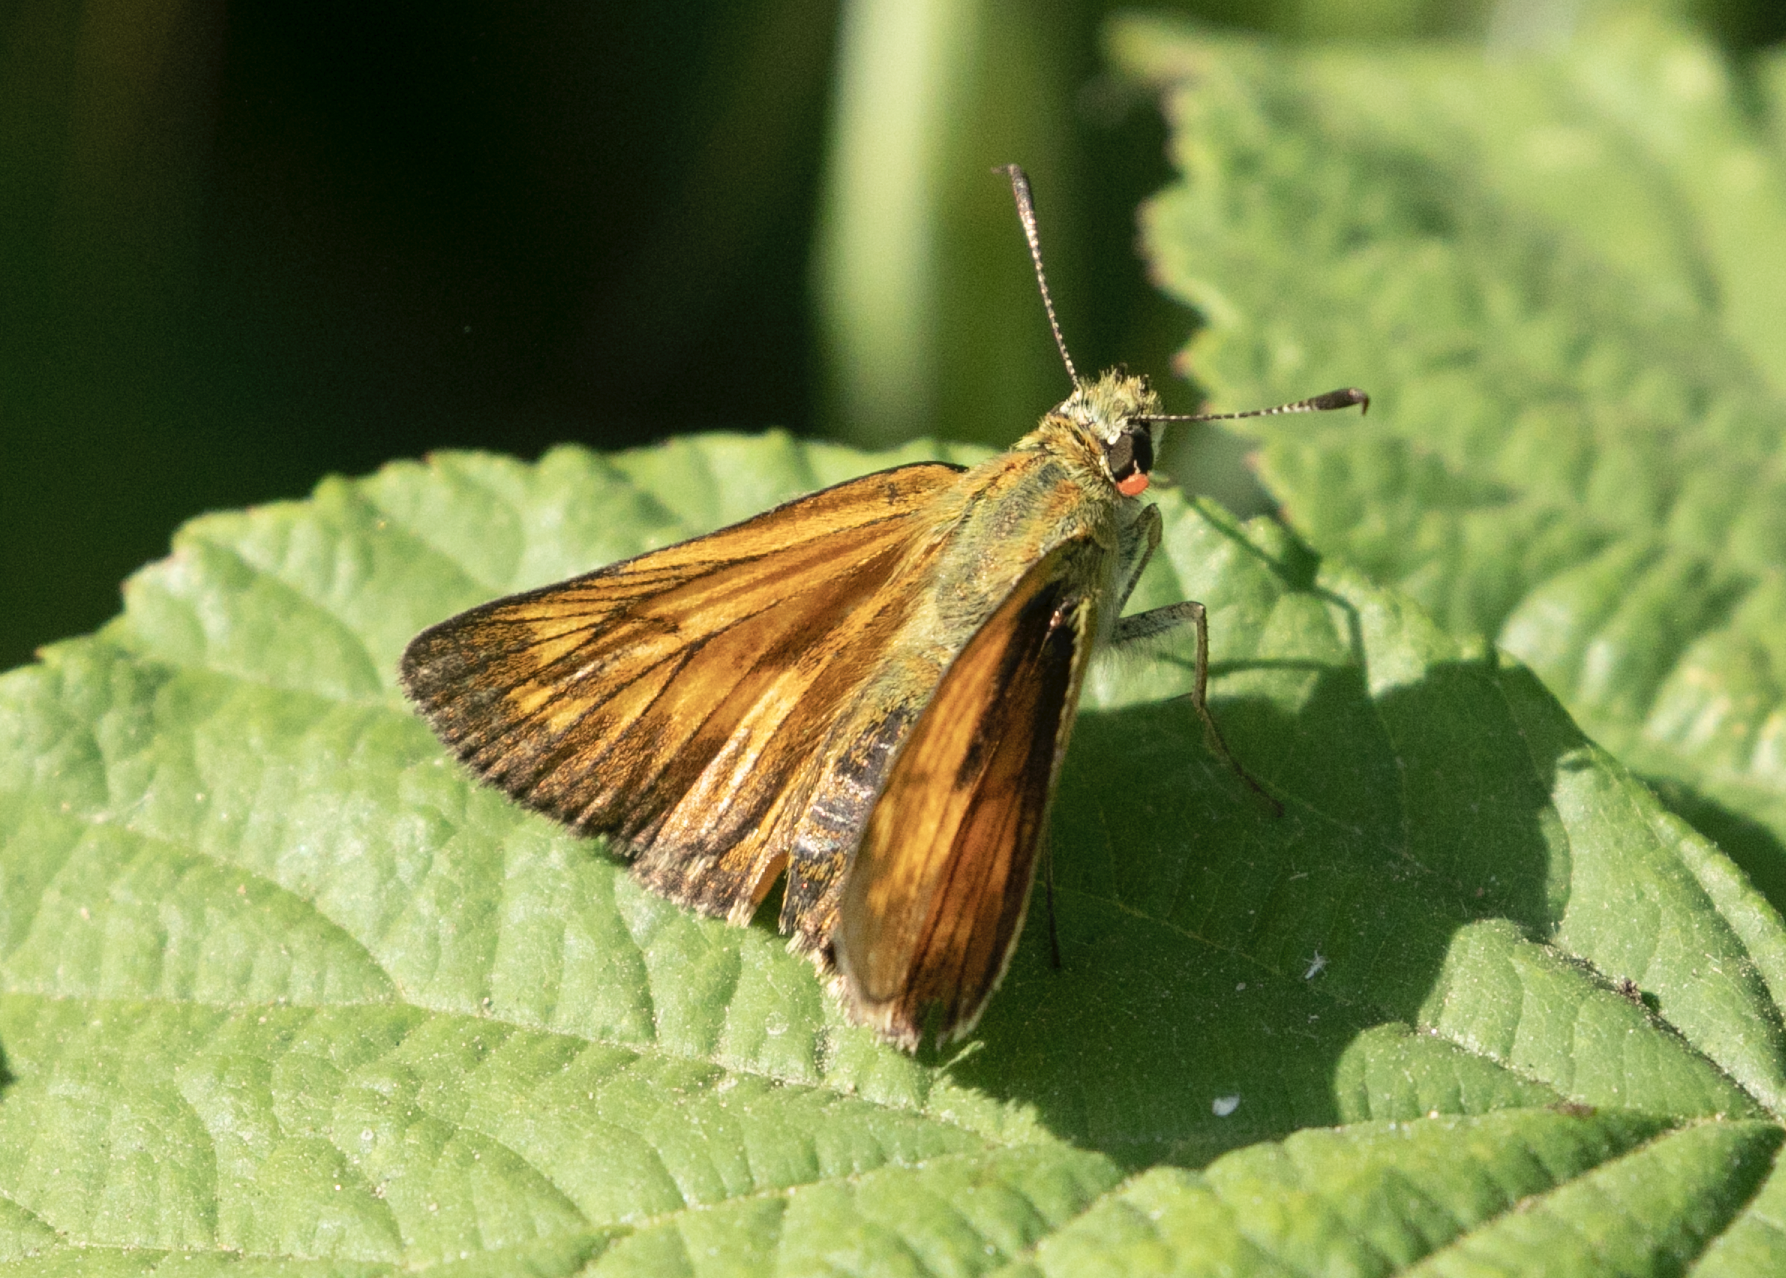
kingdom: Animalia
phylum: Arthropoda
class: Insecta
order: Lepidoptera
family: Hesperiidae
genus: Ochlodes
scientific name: Ochlodes venata
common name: Large skipper
